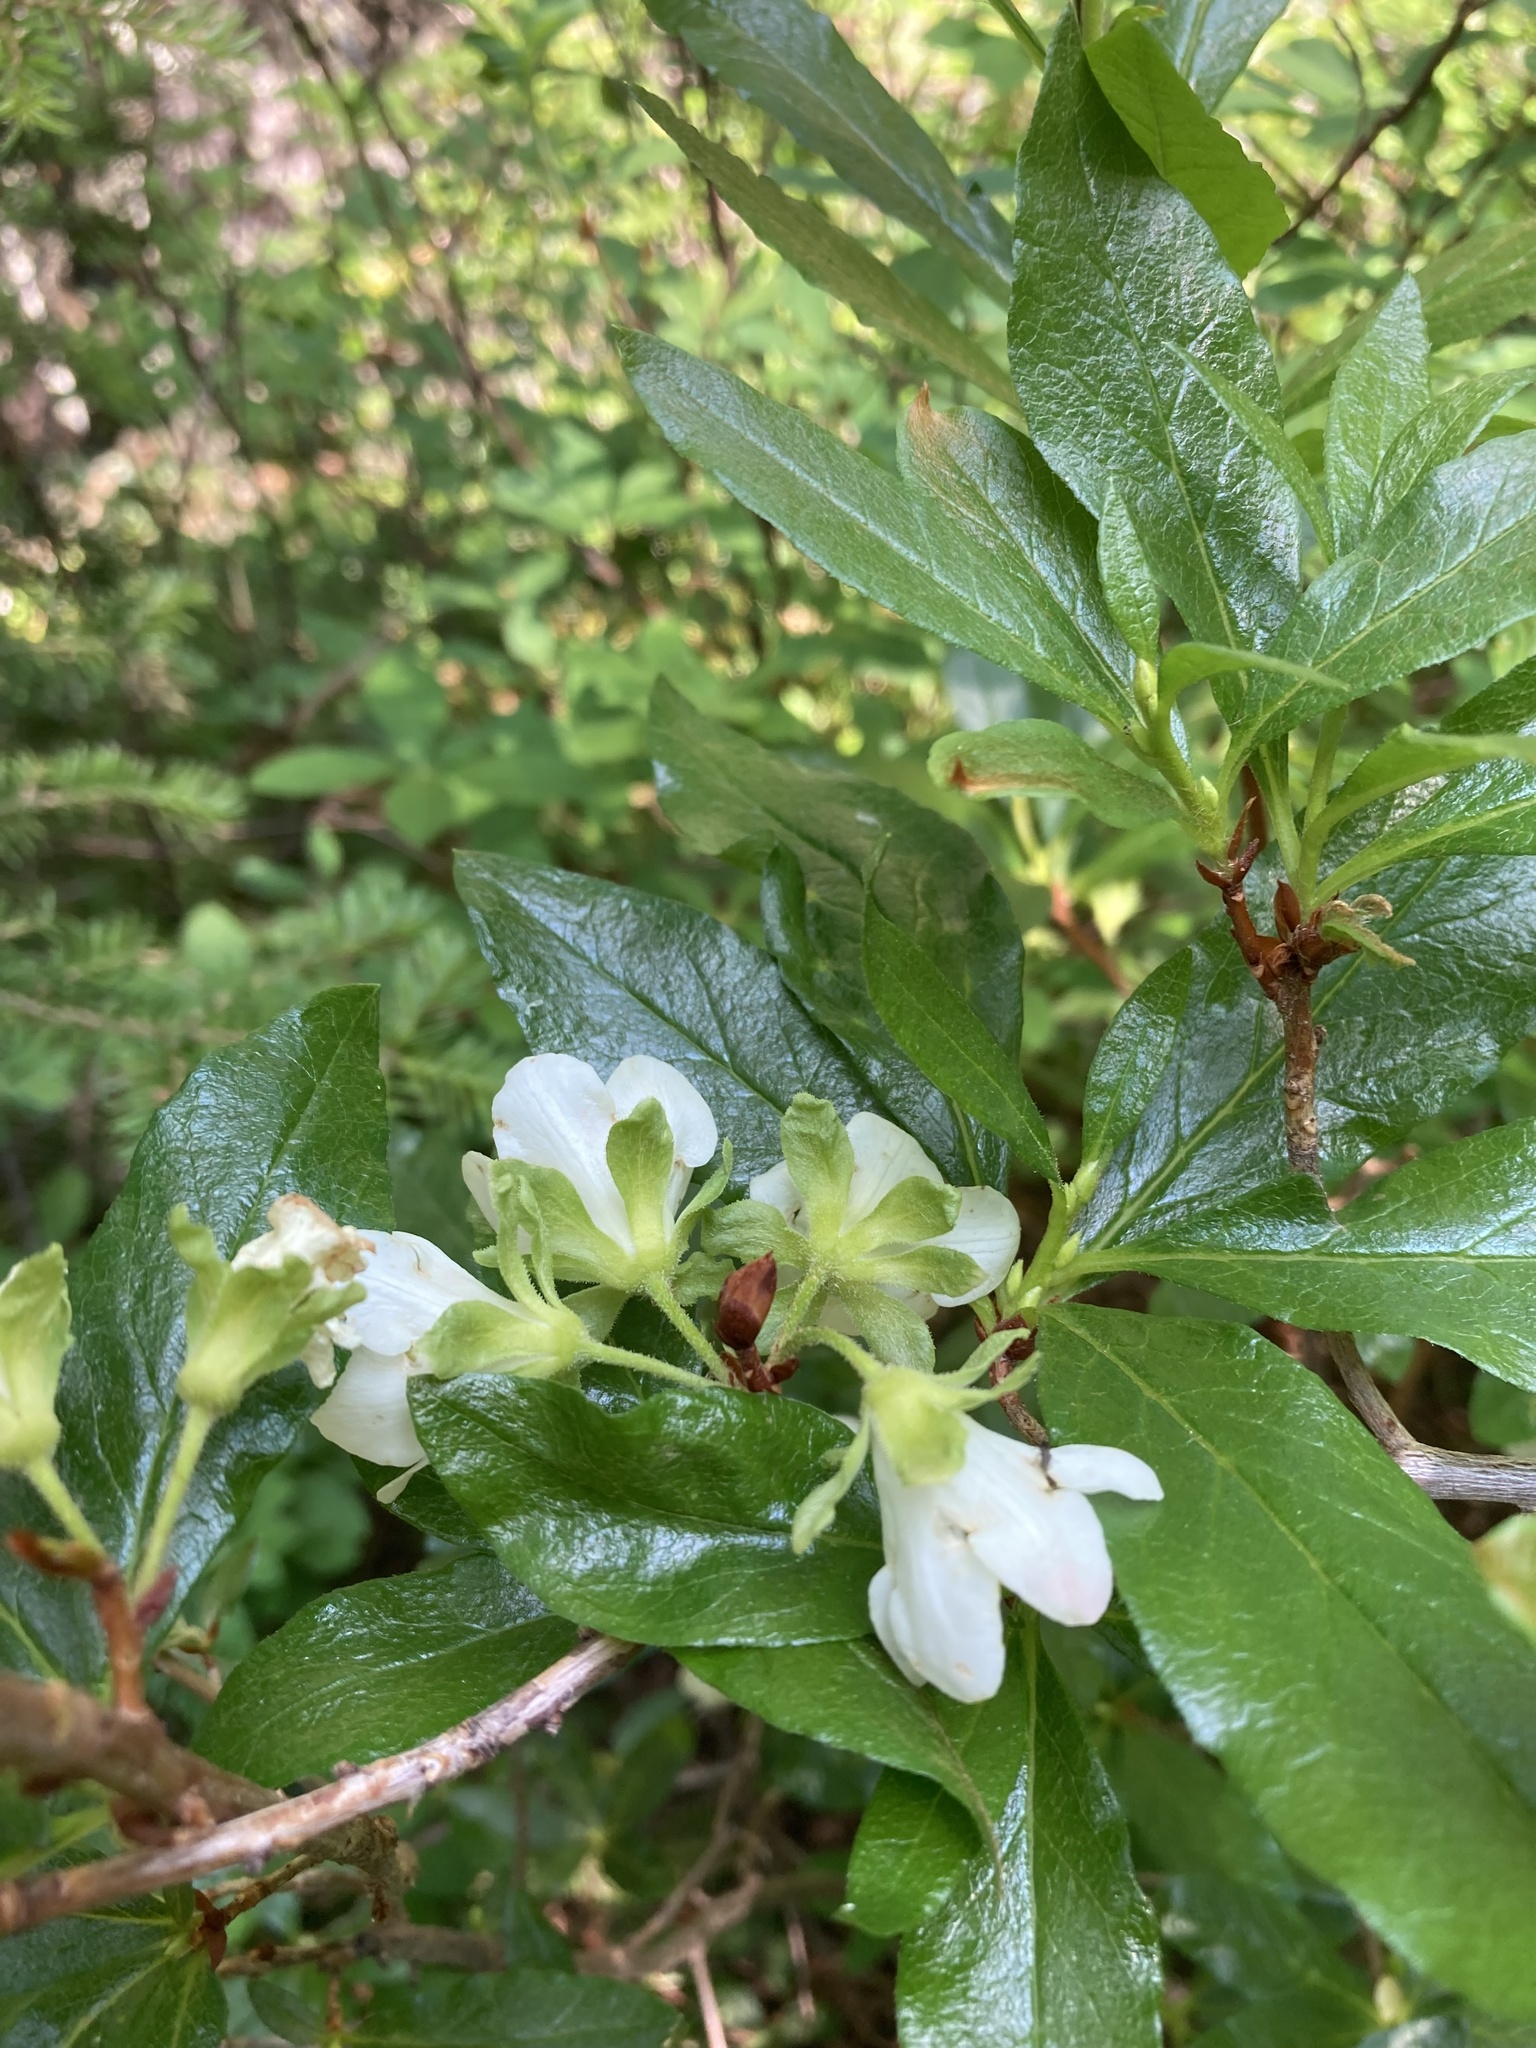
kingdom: Plantae
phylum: Tracheophyta
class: Magnoliopsida
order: Ericales
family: Ericaceae
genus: Rhododendron
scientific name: Rhododendron albiflorum
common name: White rhododendron
